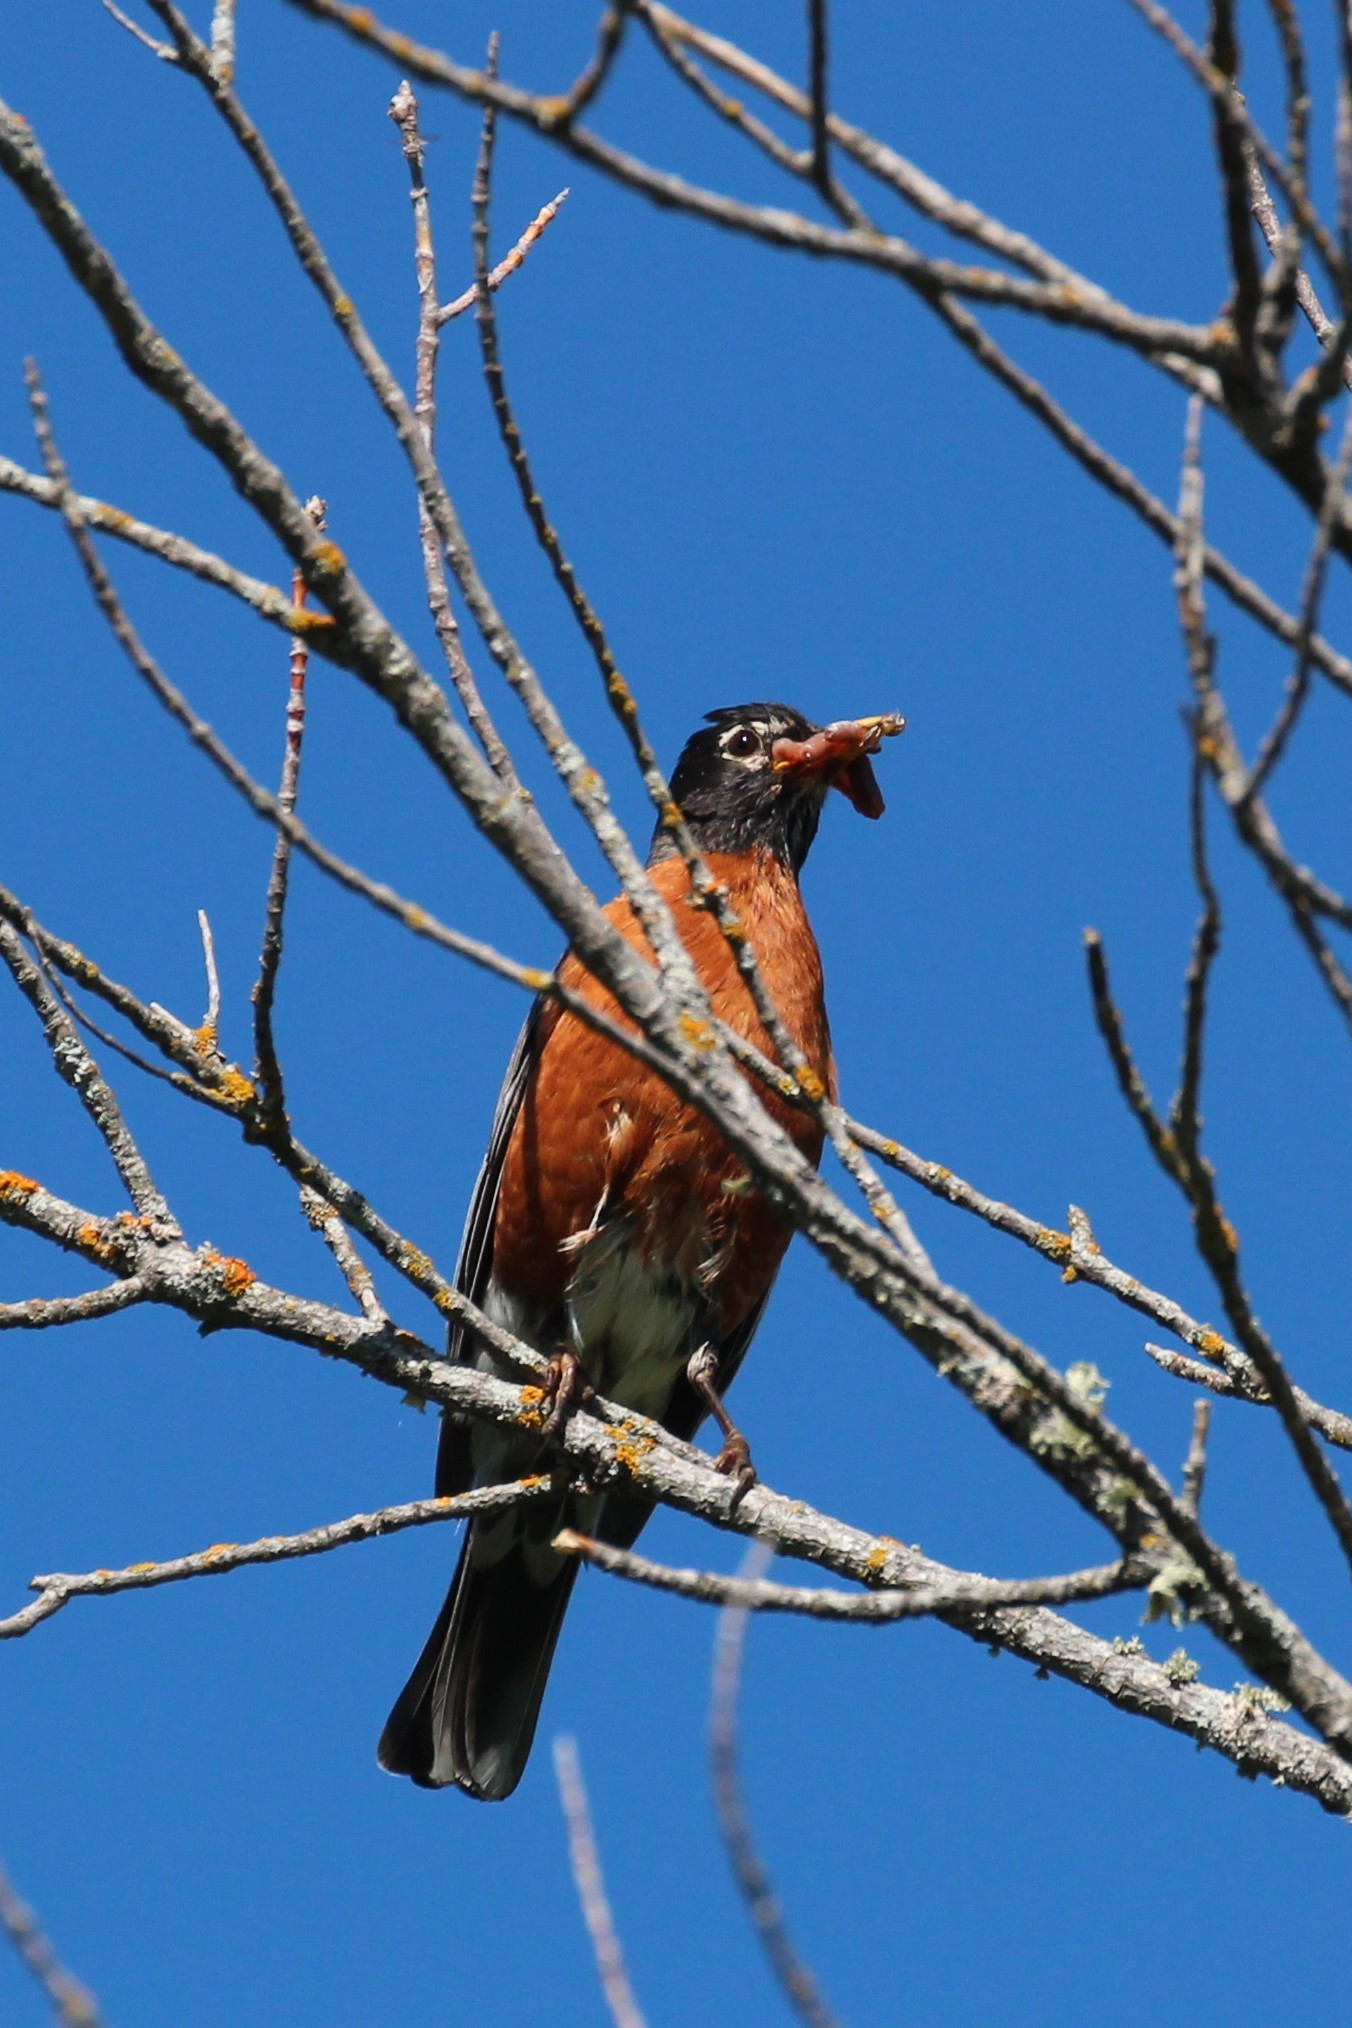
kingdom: Animalia
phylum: Chordata
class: Aves
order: Passeriformes
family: Turdidae
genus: Turdus
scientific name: Turdus migratorius
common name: American robin
